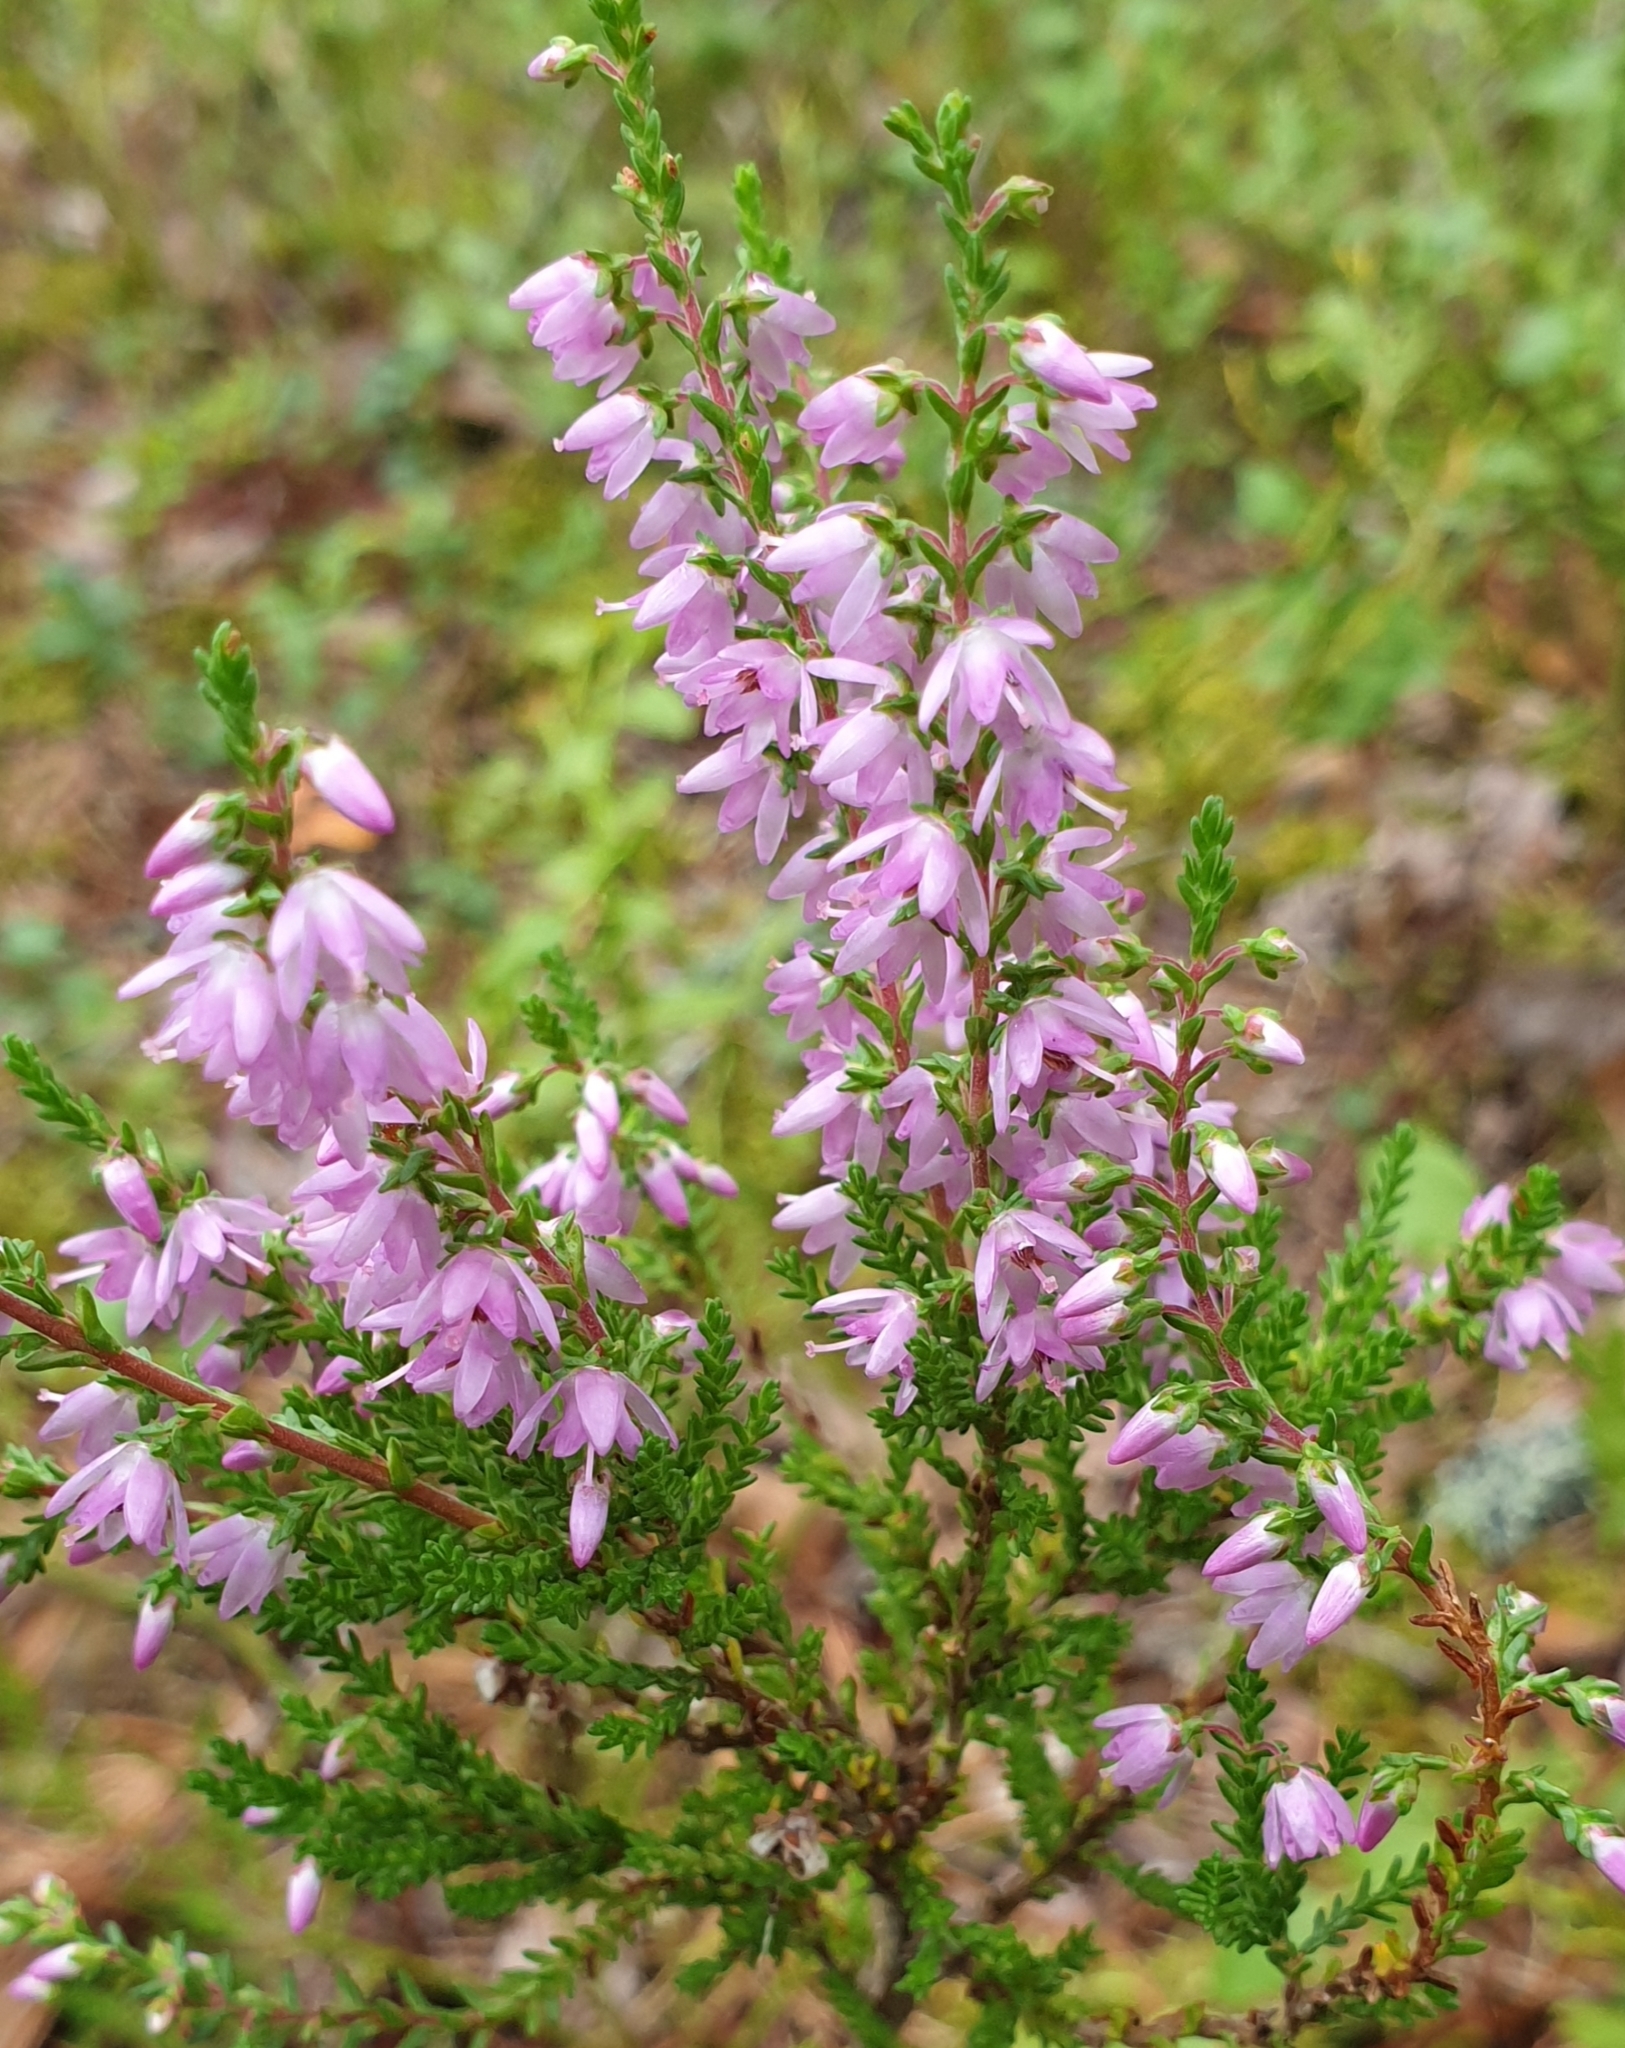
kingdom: Plantae
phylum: Tracheophyta
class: Magnoliopsida
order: Ericales
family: Ericaceae
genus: Calluna
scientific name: Calluna vulgaris
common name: Heather
